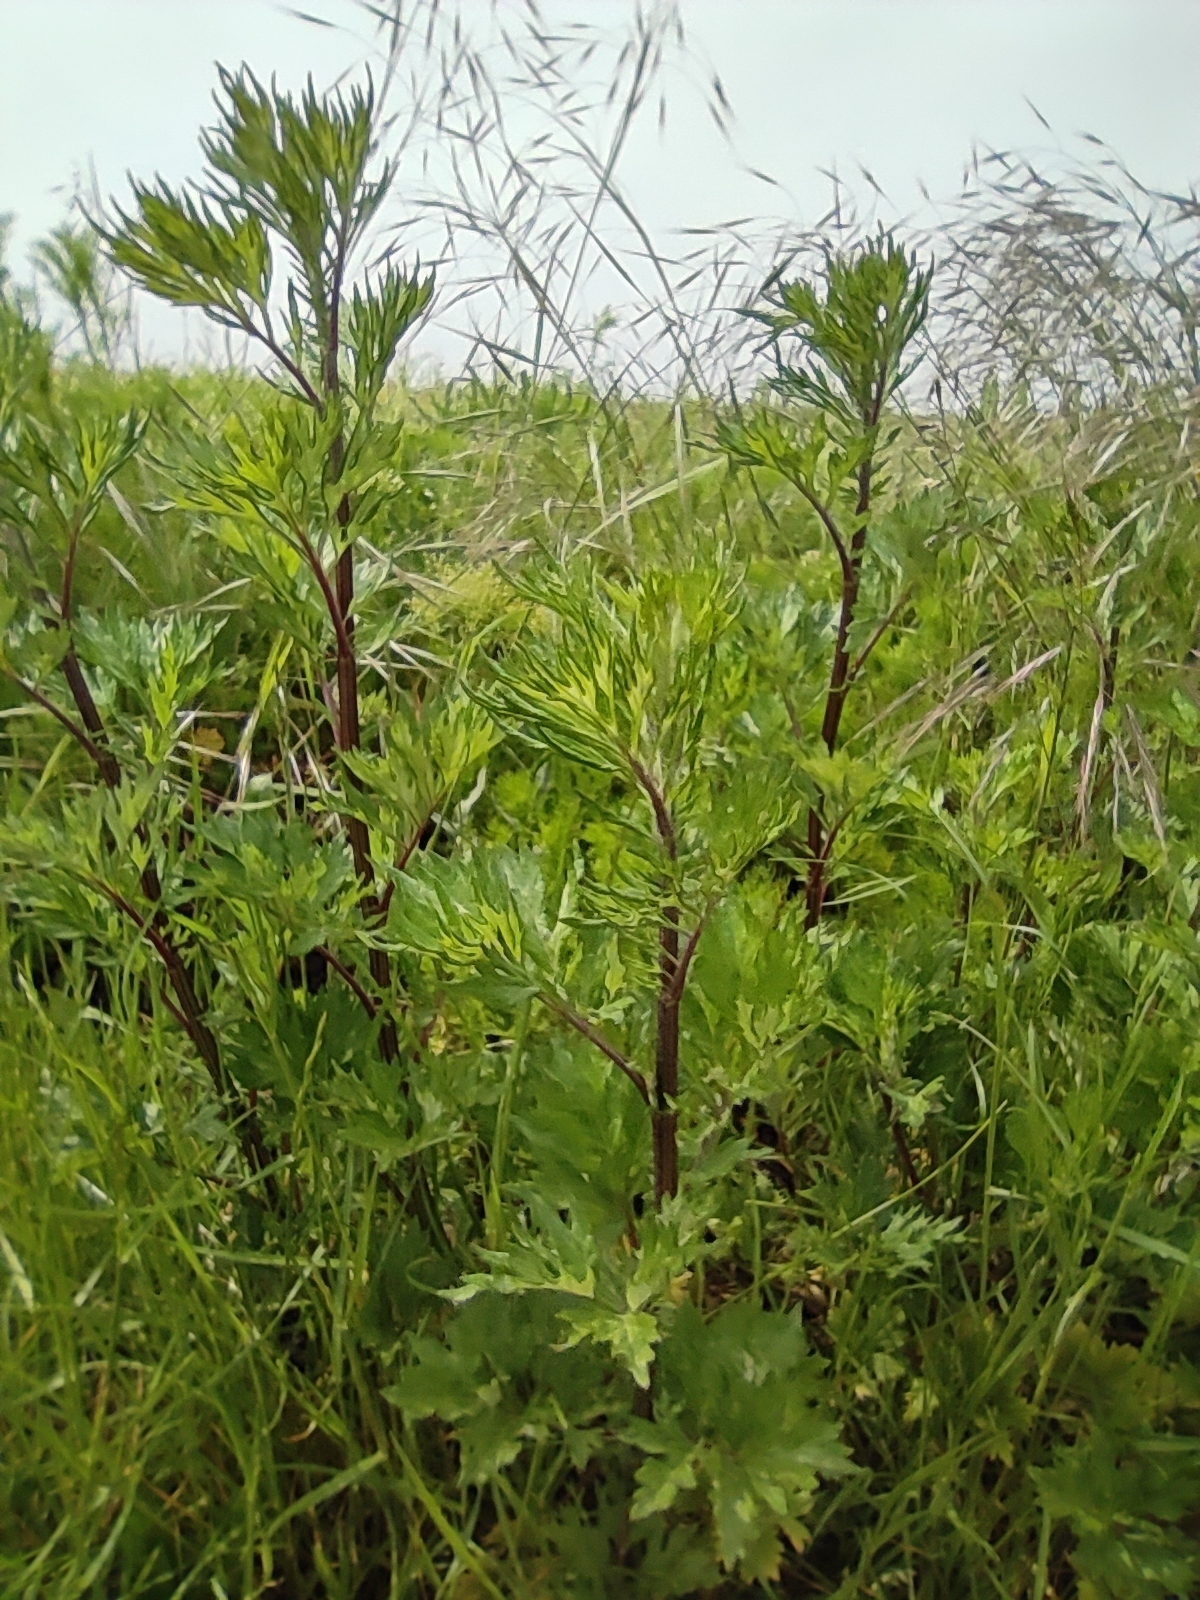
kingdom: Plantae
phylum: Tracheophyta
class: Magnoliopsida
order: Asterales
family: Asteraceae
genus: Artemisia
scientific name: Artemisia vulgaris
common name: Mugwort
